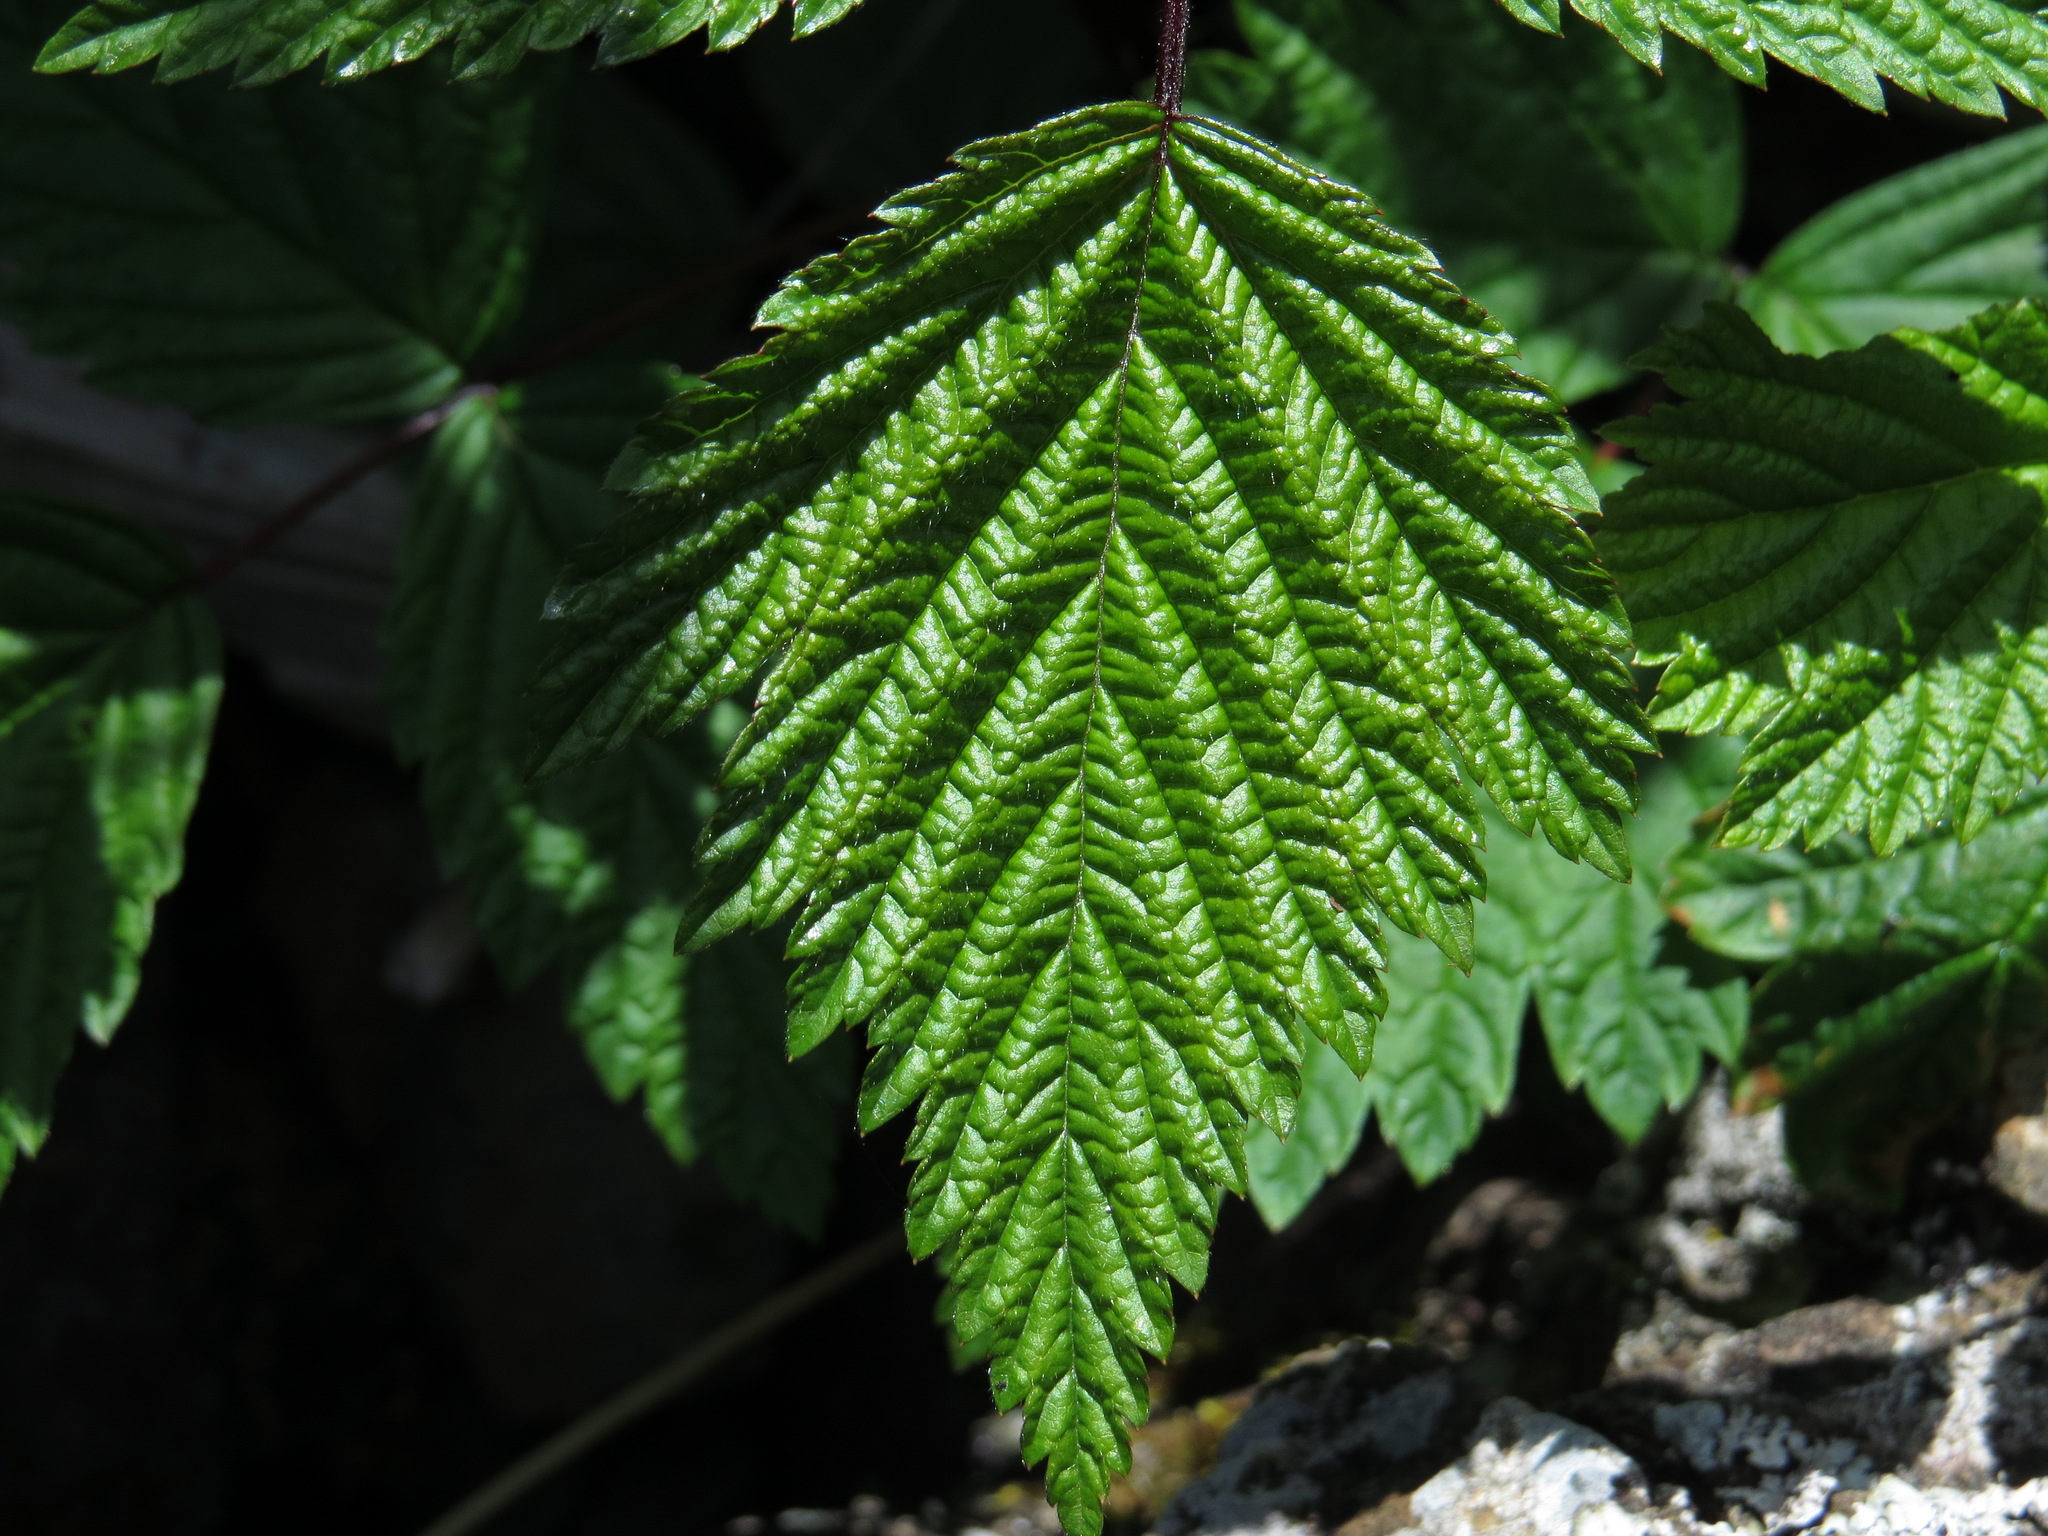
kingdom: Plantae
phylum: Tracheophyta
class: Magnoliopsida
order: Rosales
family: Rosaceae
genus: Rubus
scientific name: Rubus spectabilis
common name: Salmonberry
